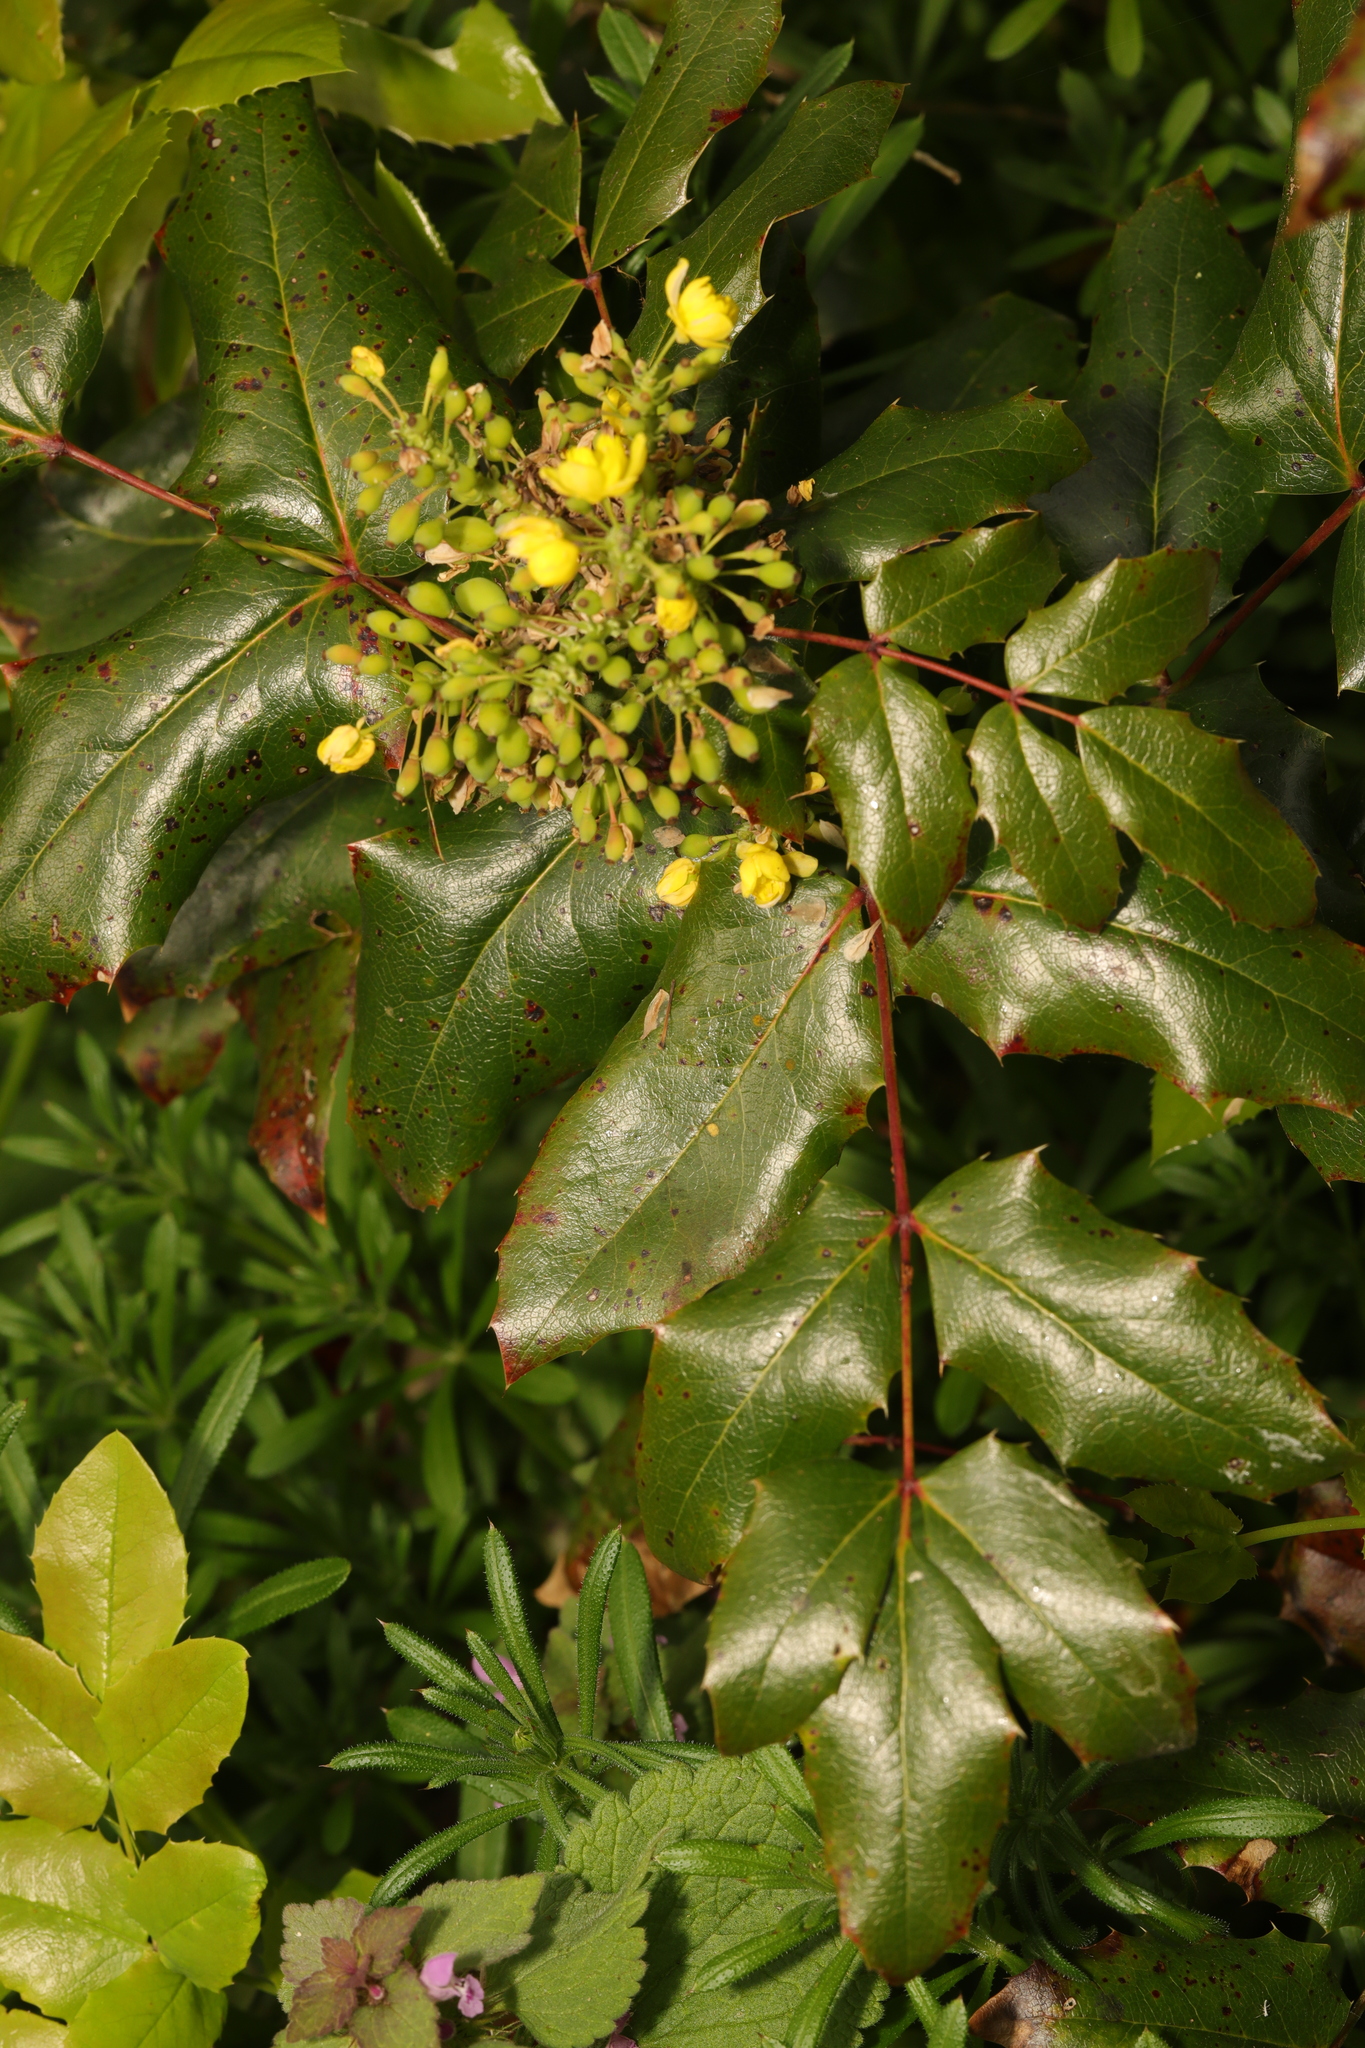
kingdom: Plantae
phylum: Tracheophyta
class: Magnoliopsida
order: Ranunculales
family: Berberidaceae
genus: Mahonia
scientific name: Mahonia aquifolium
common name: Oregon-grape
